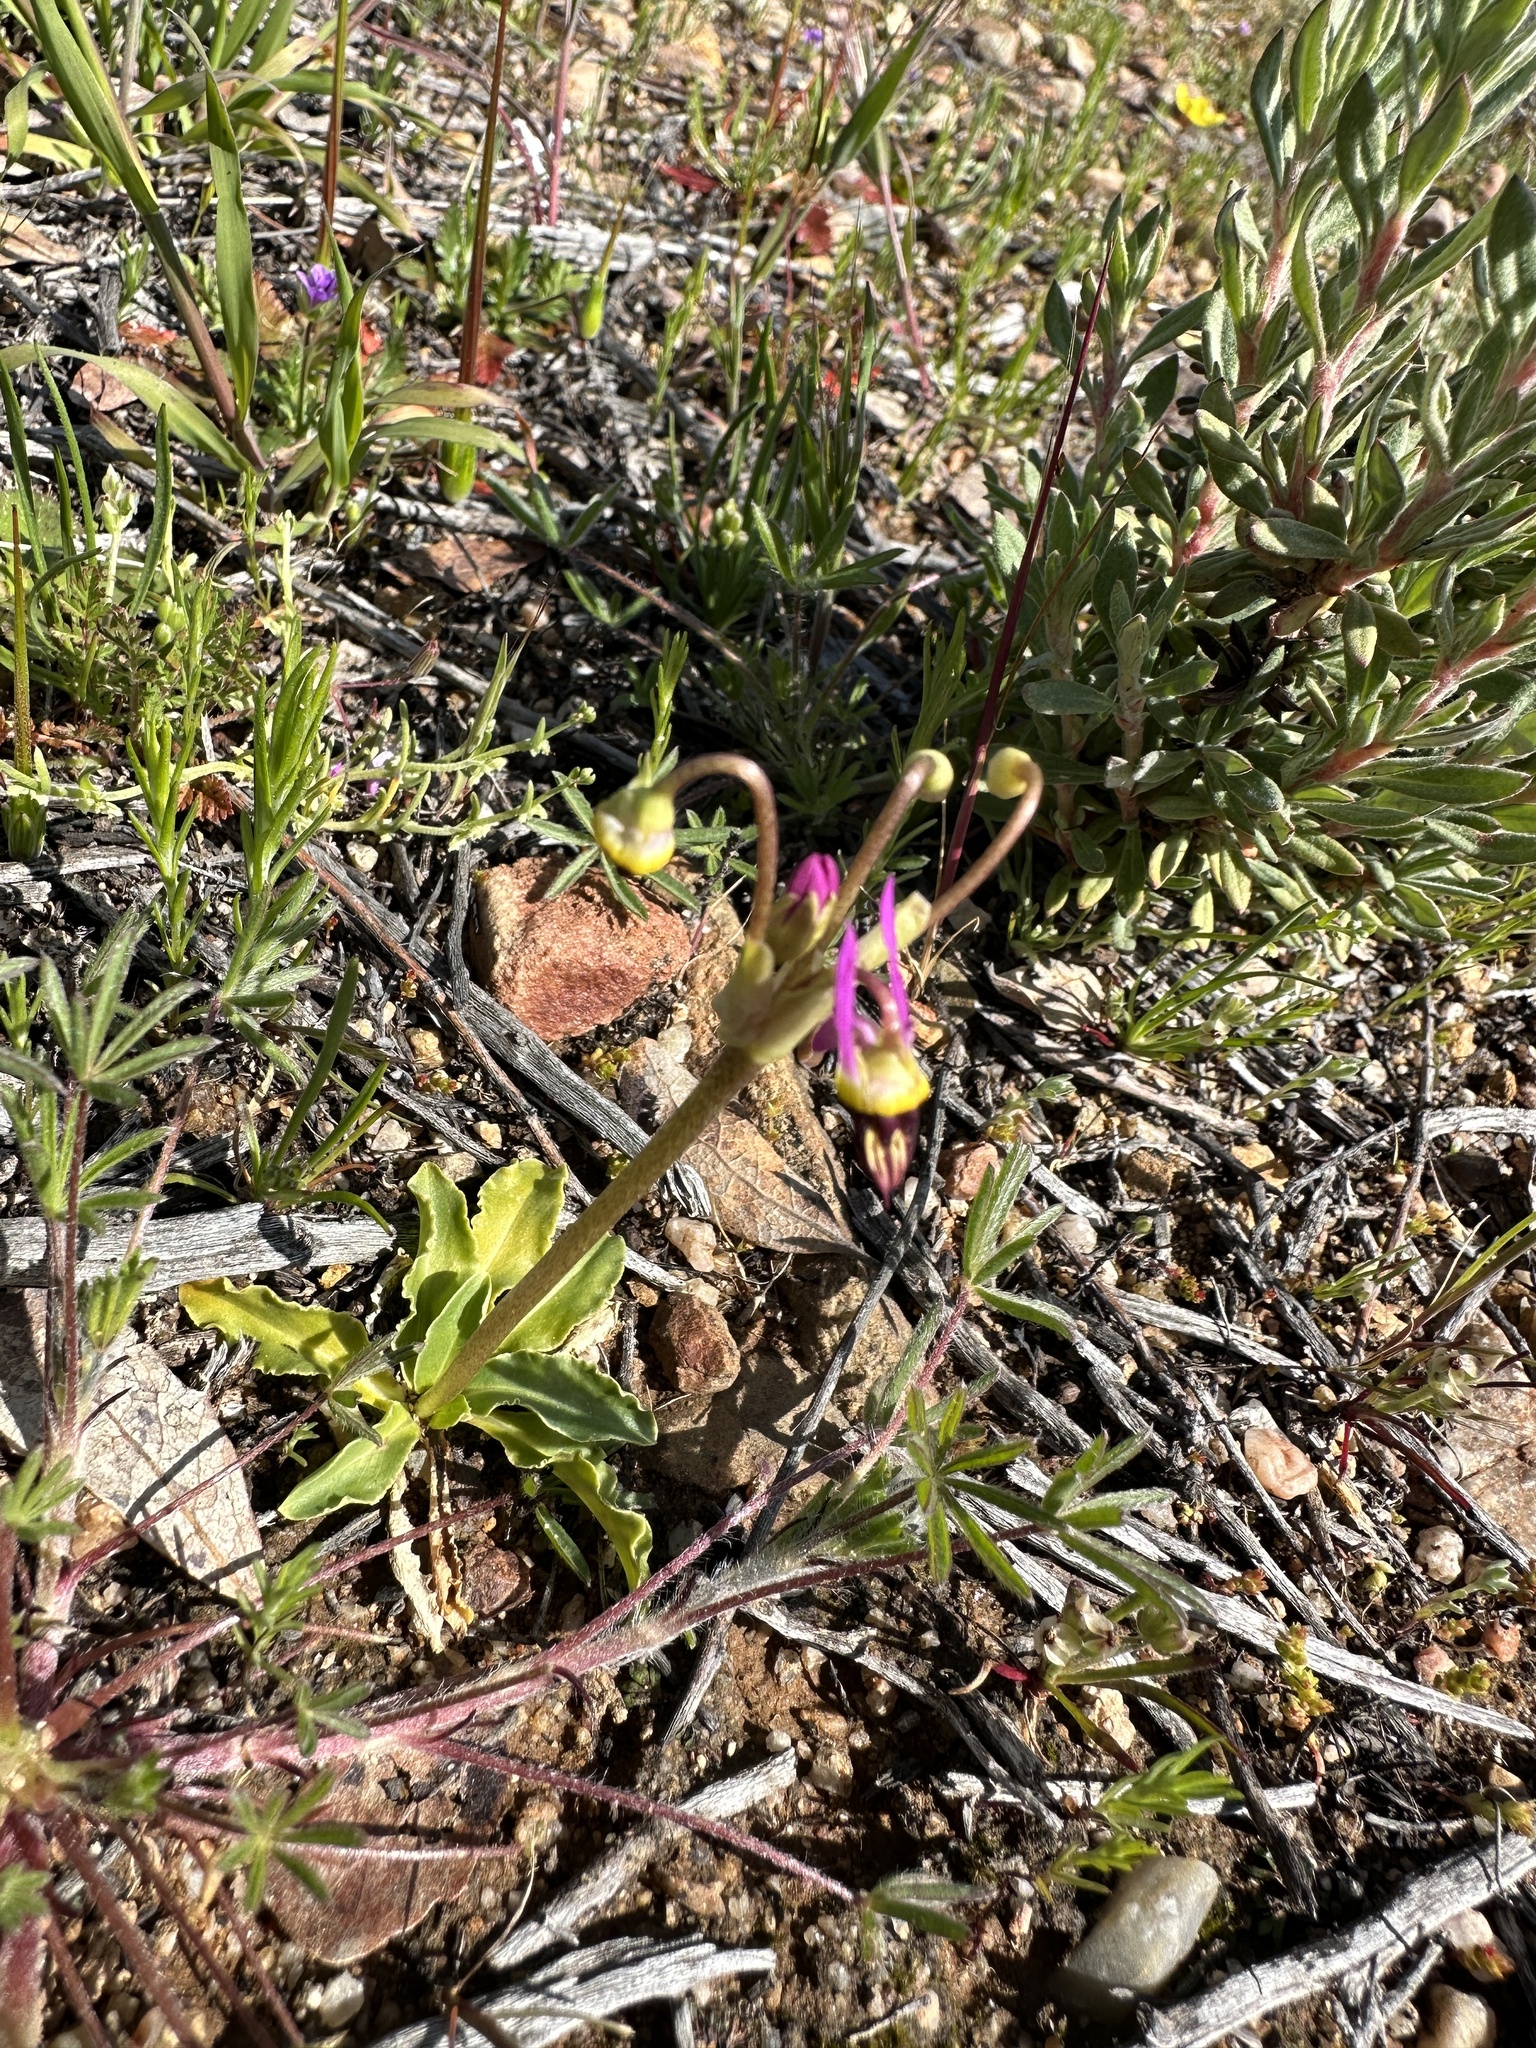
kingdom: Plantae
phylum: Tracheophyta
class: Magnoliopsida
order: Ericales
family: Primulaceae
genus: Dodecatheon
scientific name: Dodecatheon clevelandii
